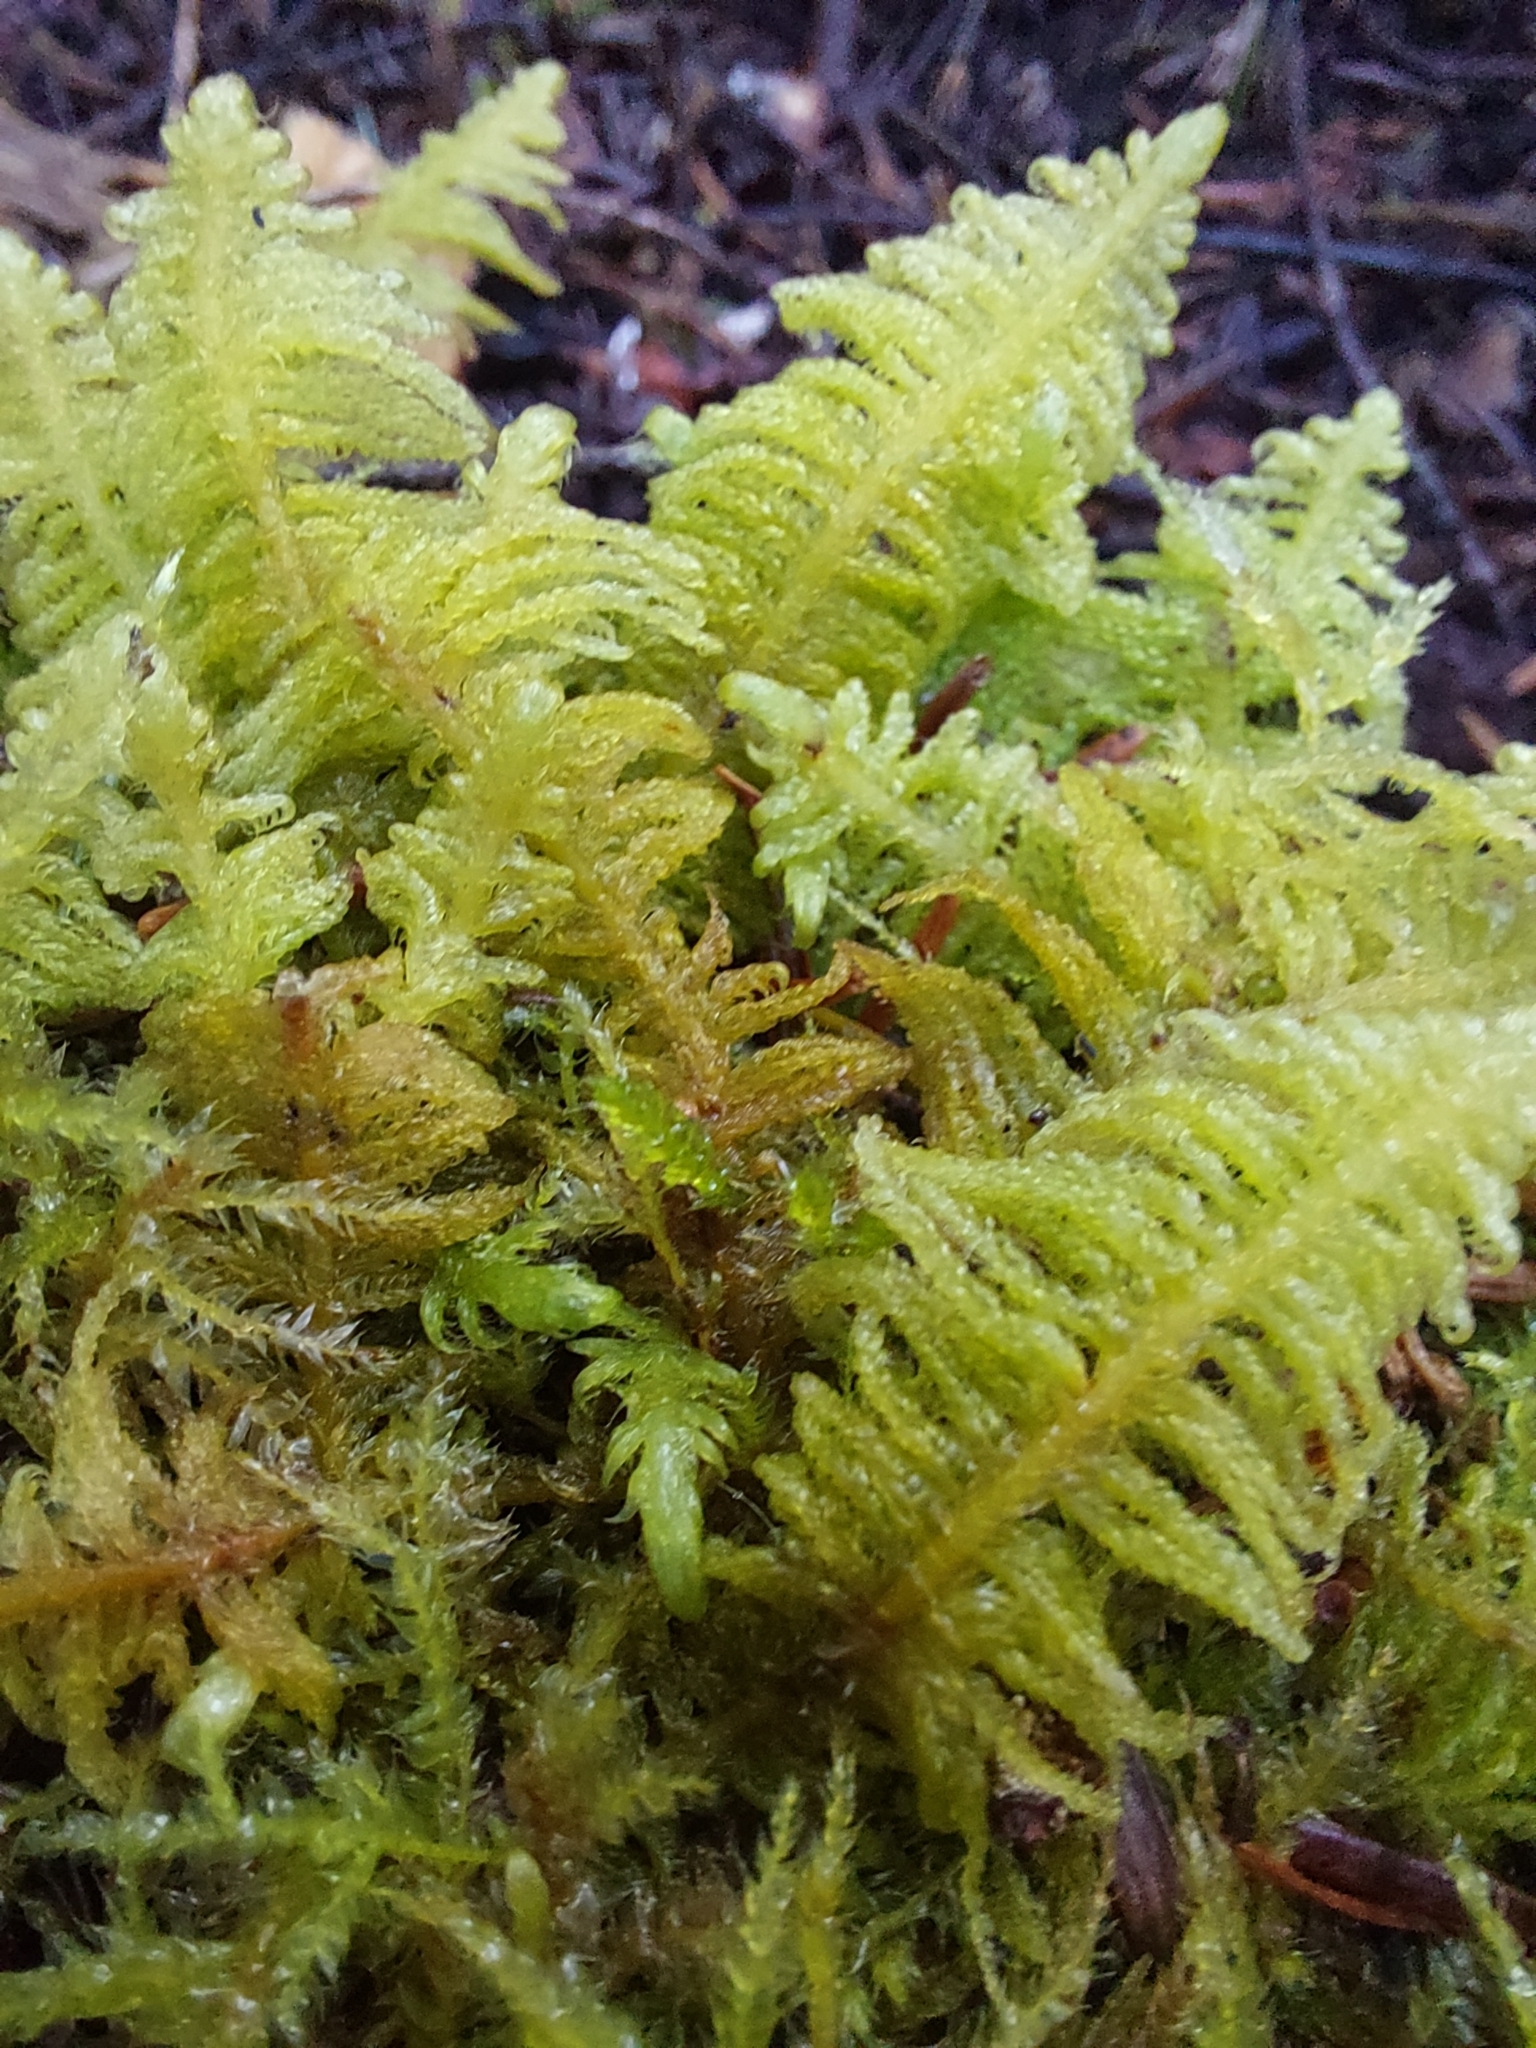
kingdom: Plantae
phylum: Bryophyta
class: Bryopsida
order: Hypnales
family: Pylaisiaceae
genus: Ptilium
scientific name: Ptilium crista-castrensis
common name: Knight's plume moss
